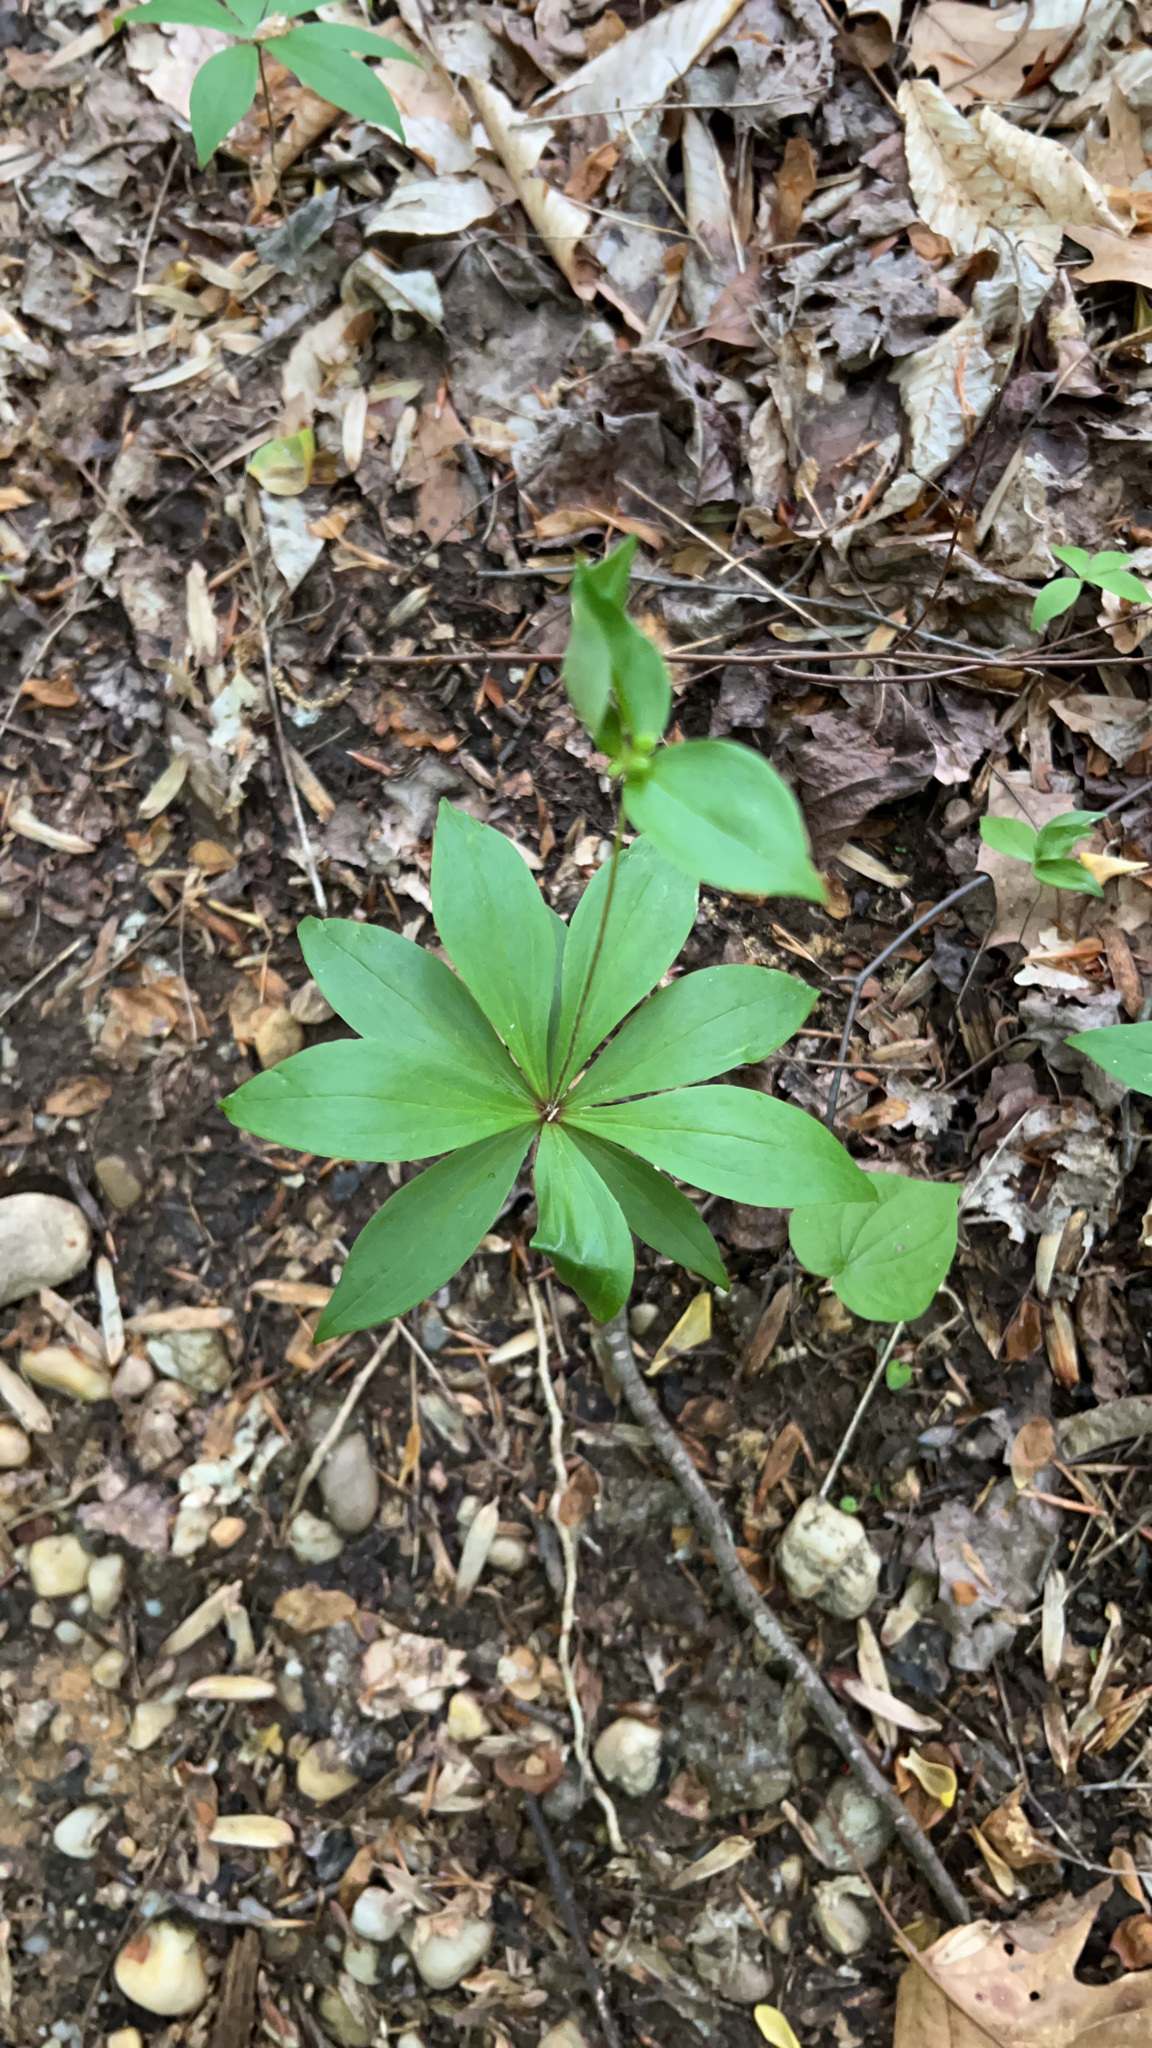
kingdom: Plantae
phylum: Tracheophyta
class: Liliopsida
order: Liliales
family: Liliaceae
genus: Medeola
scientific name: Medeola virginiana
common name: Indian cucumber-root
